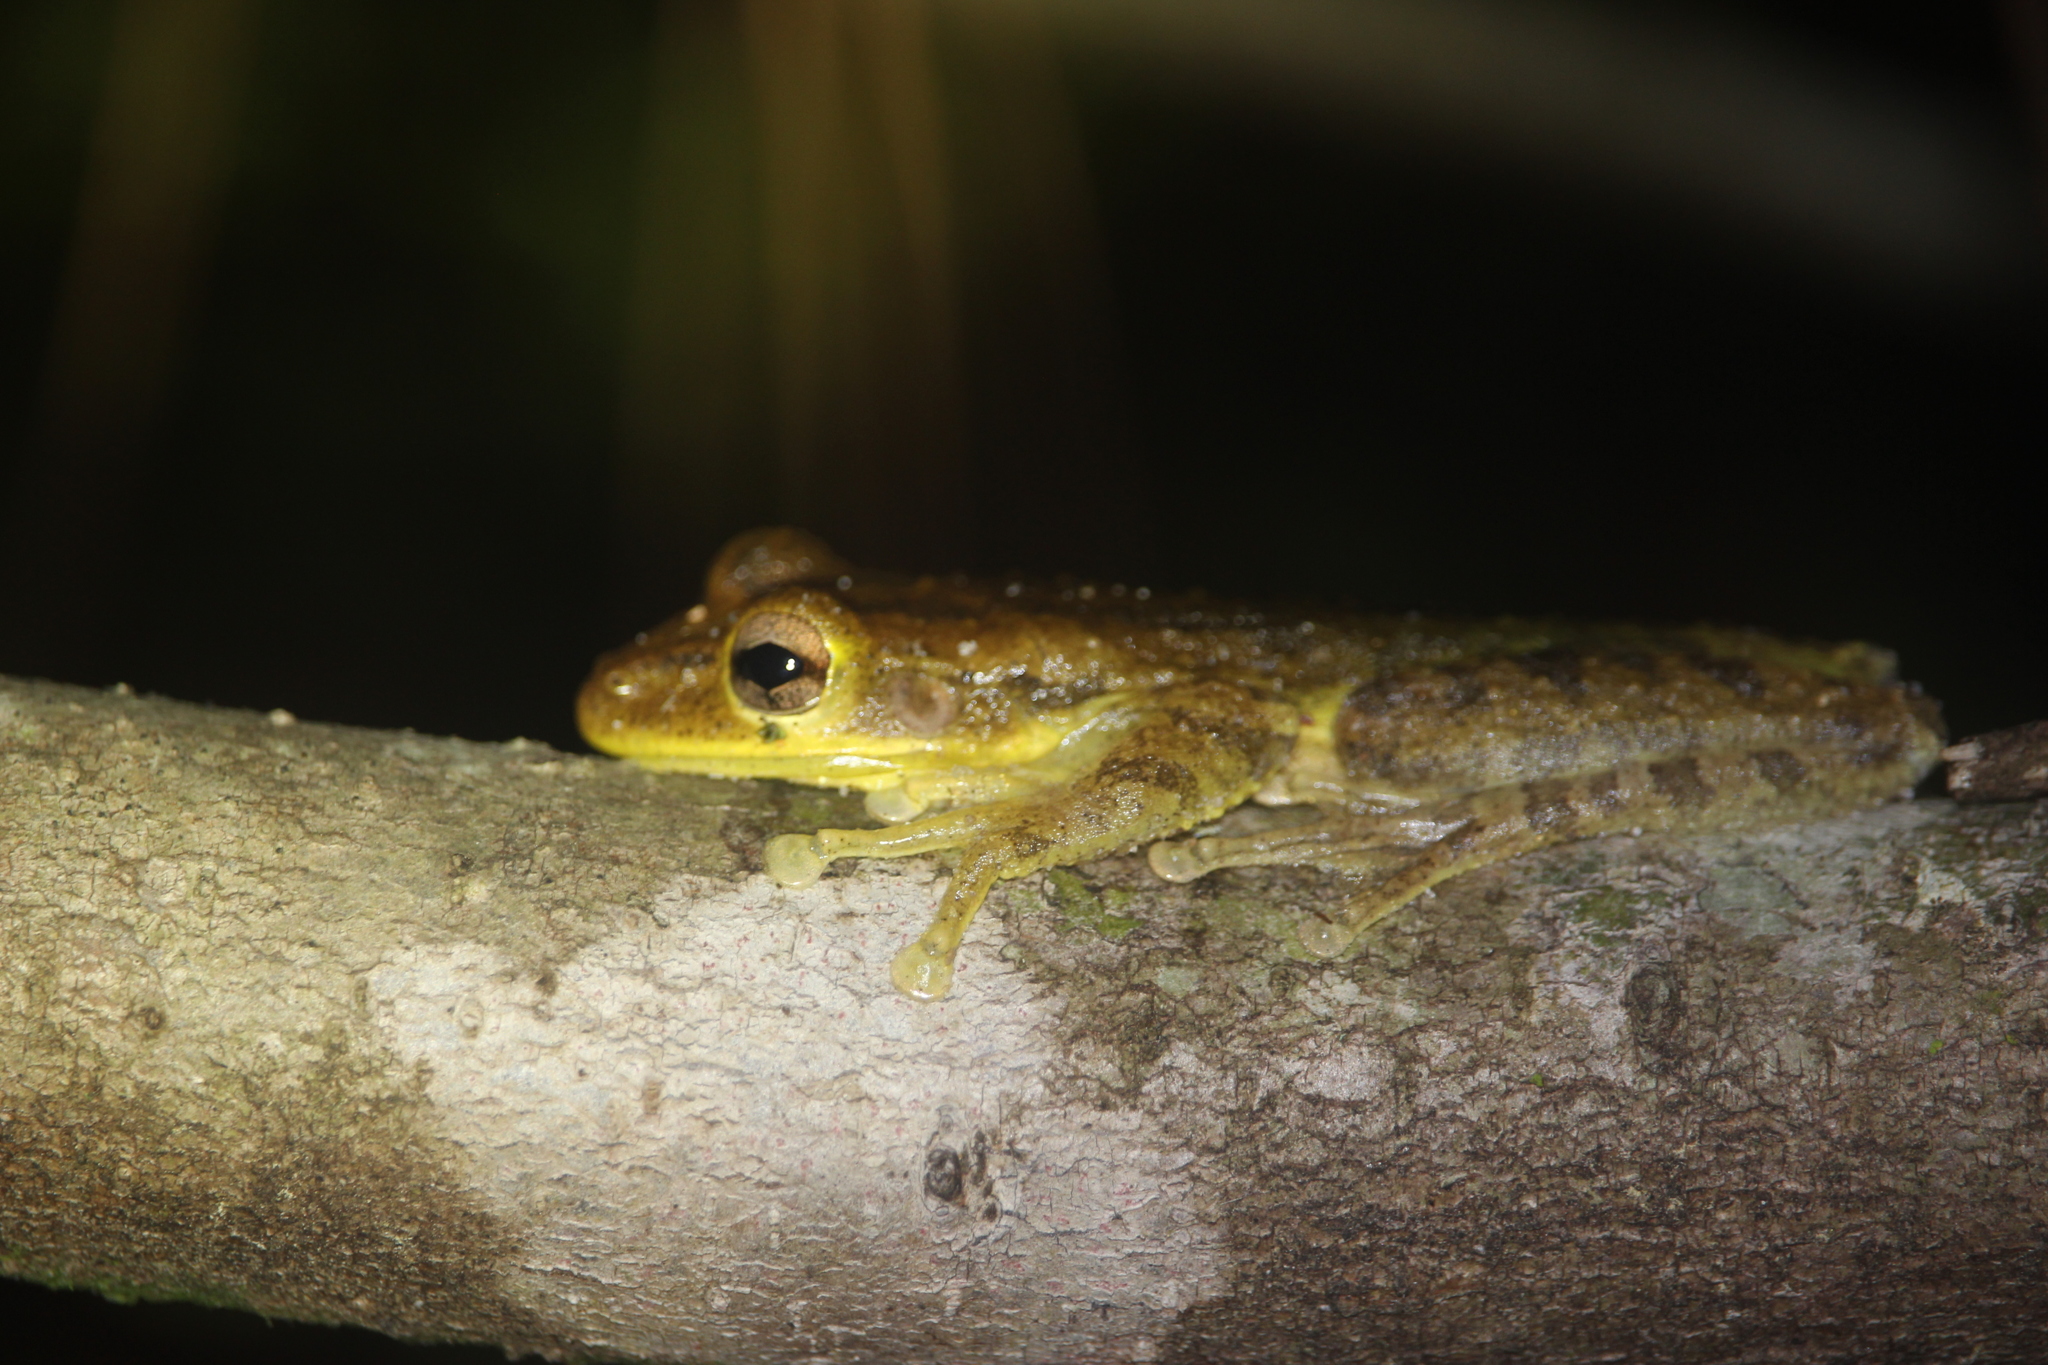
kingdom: Animalia
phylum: Chordata
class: Amphibia
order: Anura
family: Hylidae
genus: Osteopilus
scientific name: Osteopilus septentrionalis
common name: Cuban treefrog
